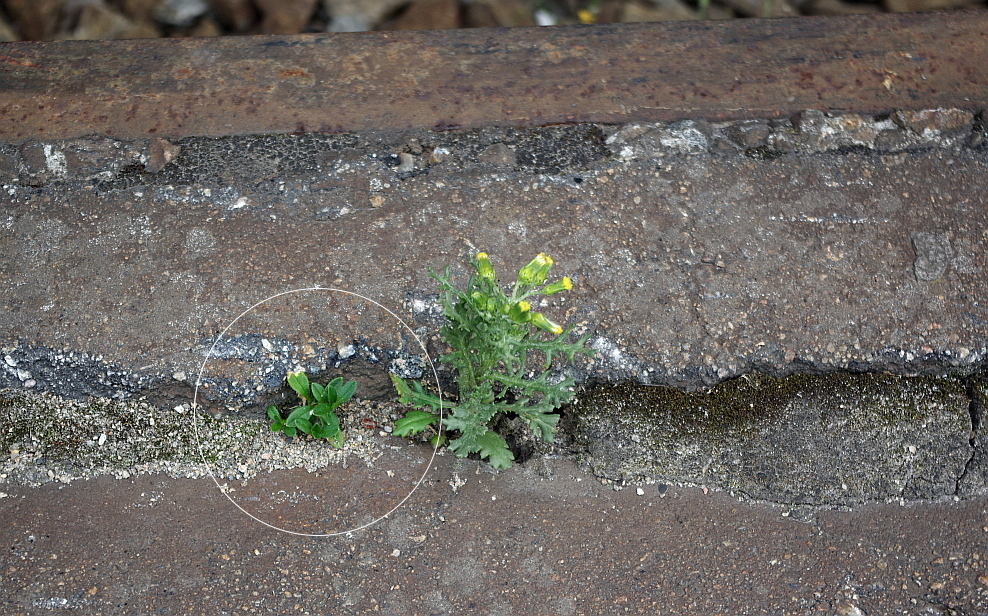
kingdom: Plantae
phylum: Tracheophyta
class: Magnoliopsida
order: Caryophyllales
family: Caryophyllaceae
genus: Cerastium
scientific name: Cerastium holosteoides
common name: Big chickweed
